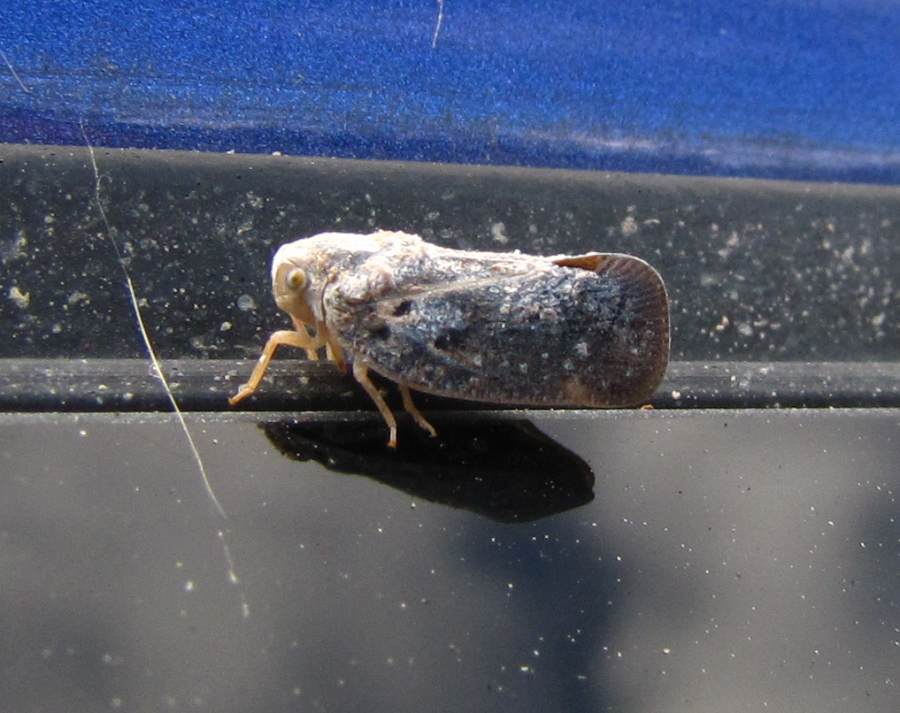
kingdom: Animalia
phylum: Arthropoda
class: Insecta
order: Hemiptera
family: Flatidae
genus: Metcalfa
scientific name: Metcalfa pruinosa
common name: Citrus flatid planthopper
